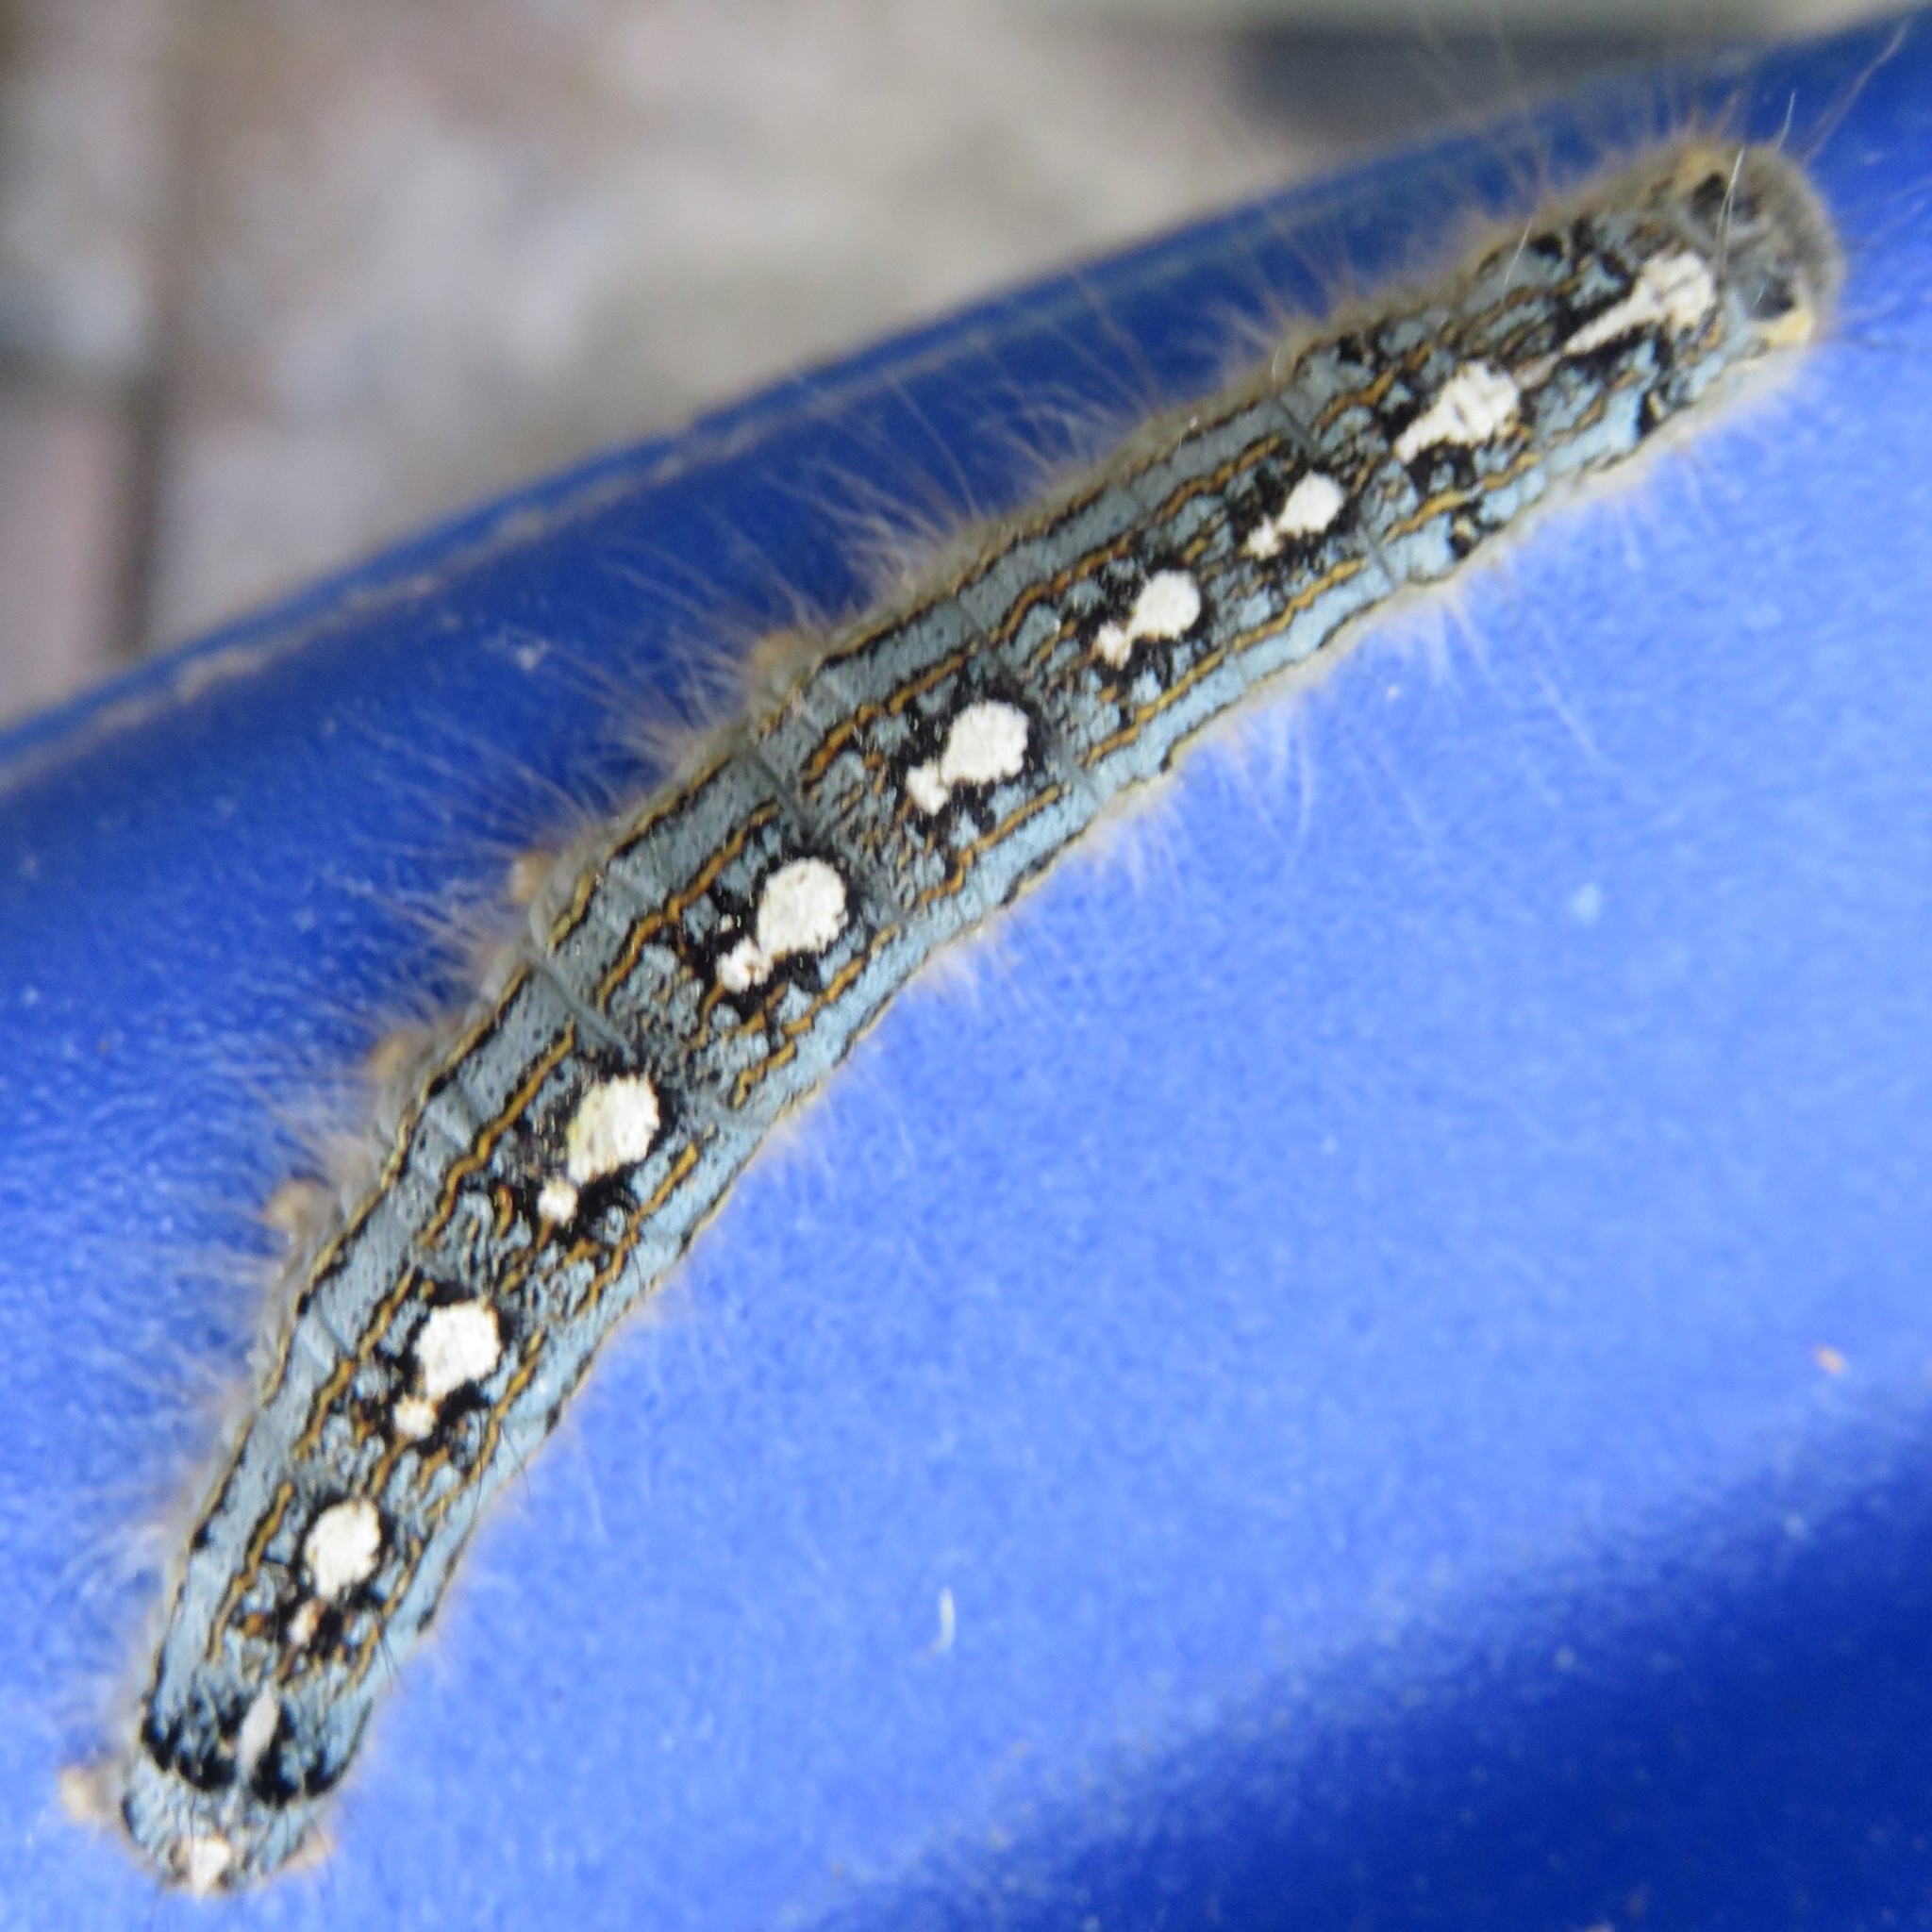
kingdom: Animalia
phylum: Arthropoda
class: Insecta
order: Lepidoptera
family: Lasiocampidae
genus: Malacosoma
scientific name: Malacosoma disstria
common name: Forest tent caterpillar
